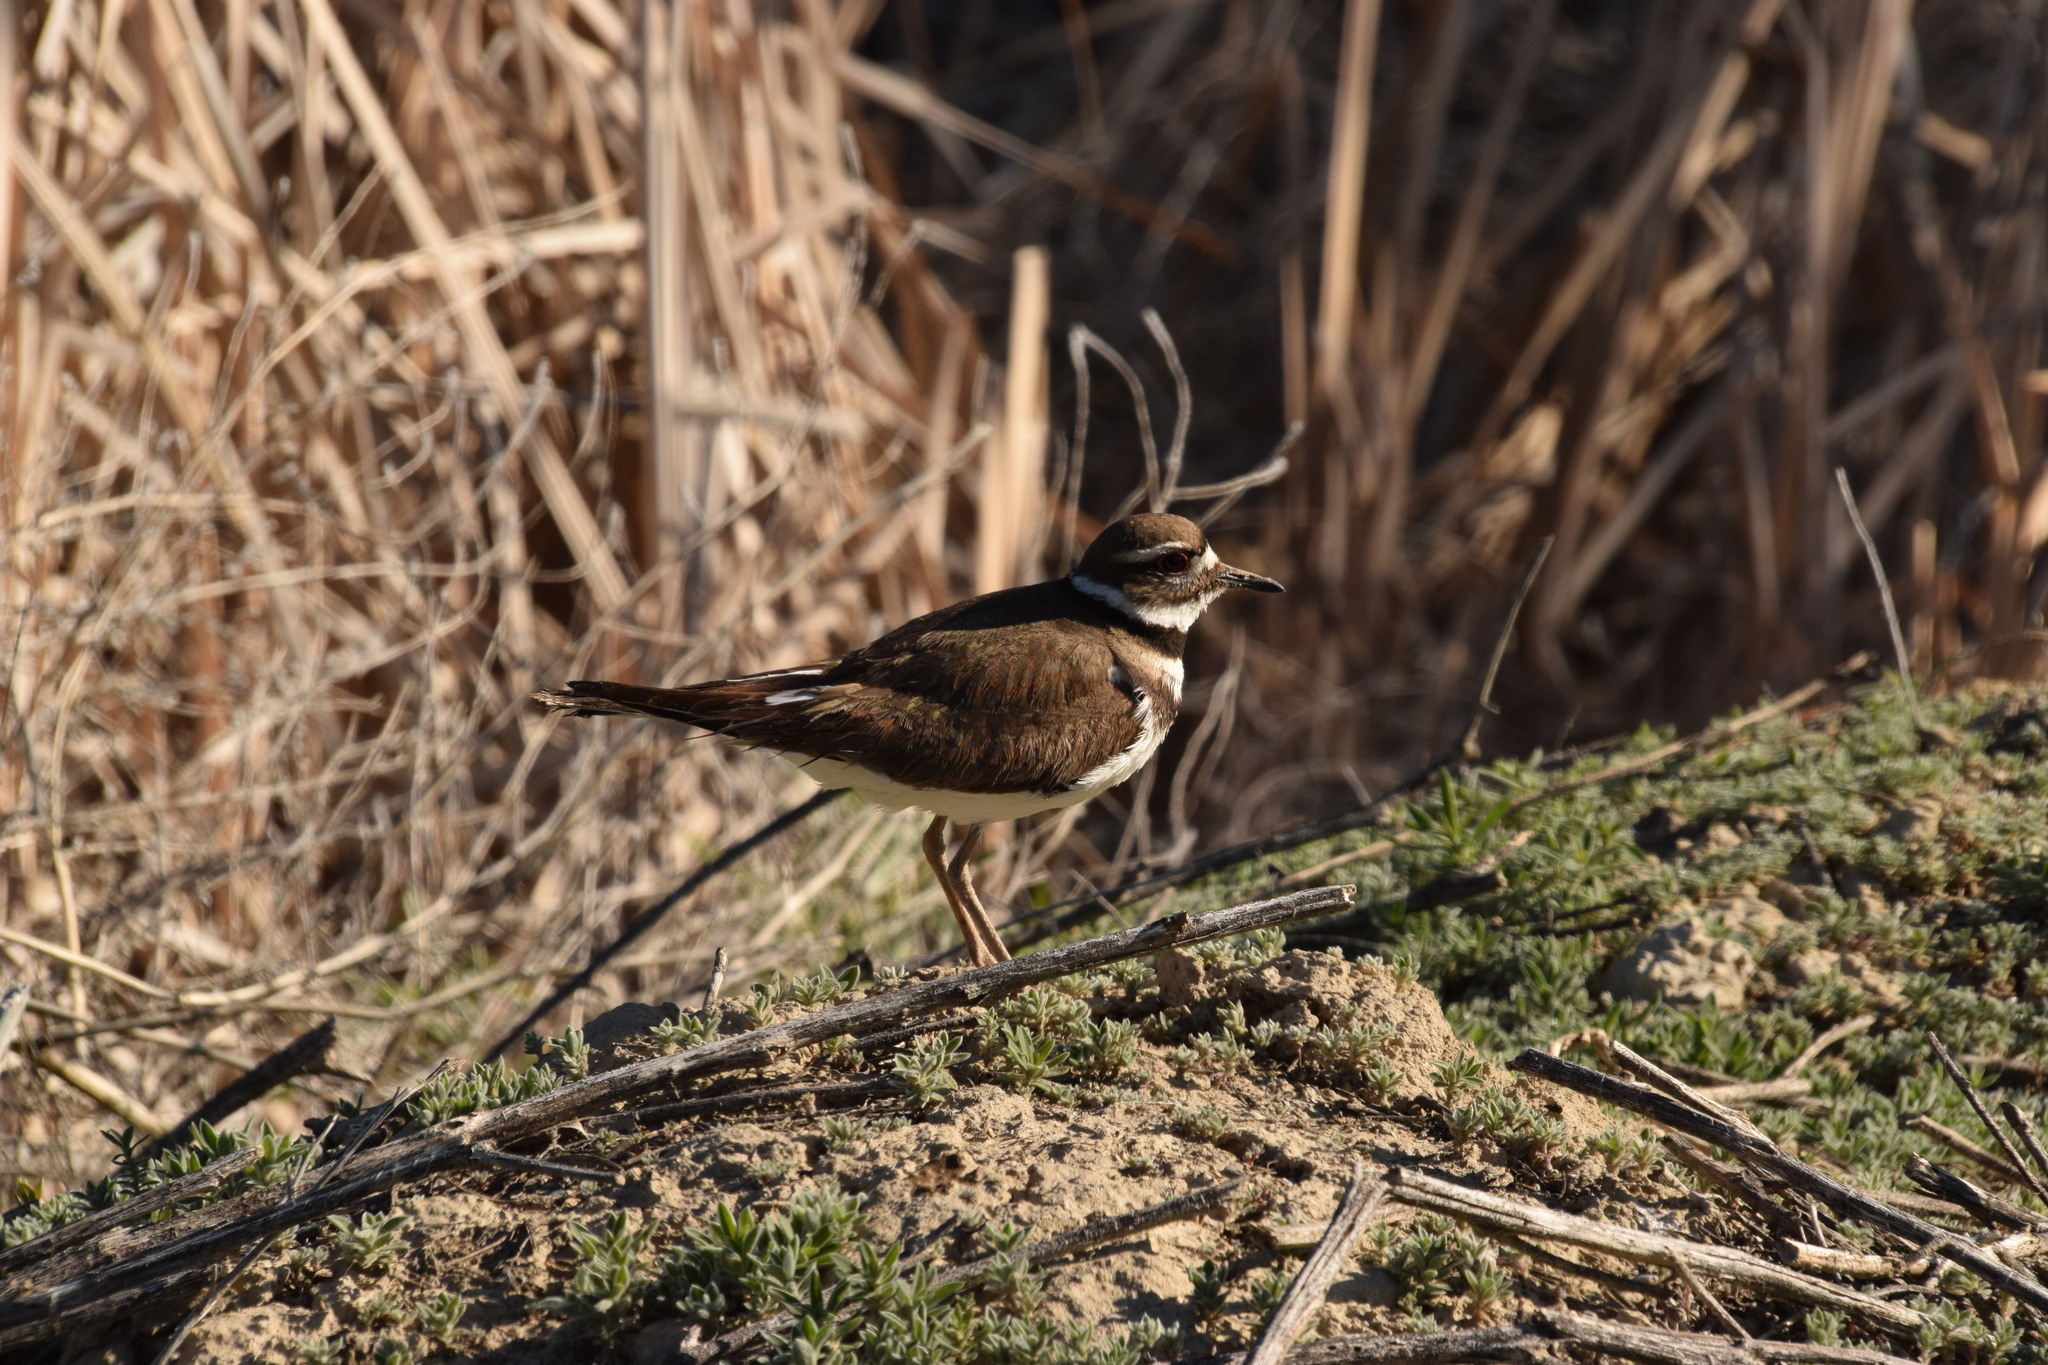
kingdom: Animalia
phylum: Chordata
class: Aves
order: Charadriiformes
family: Charadriidae
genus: Charadrius
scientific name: Charadrius vociferus
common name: Killdeer
